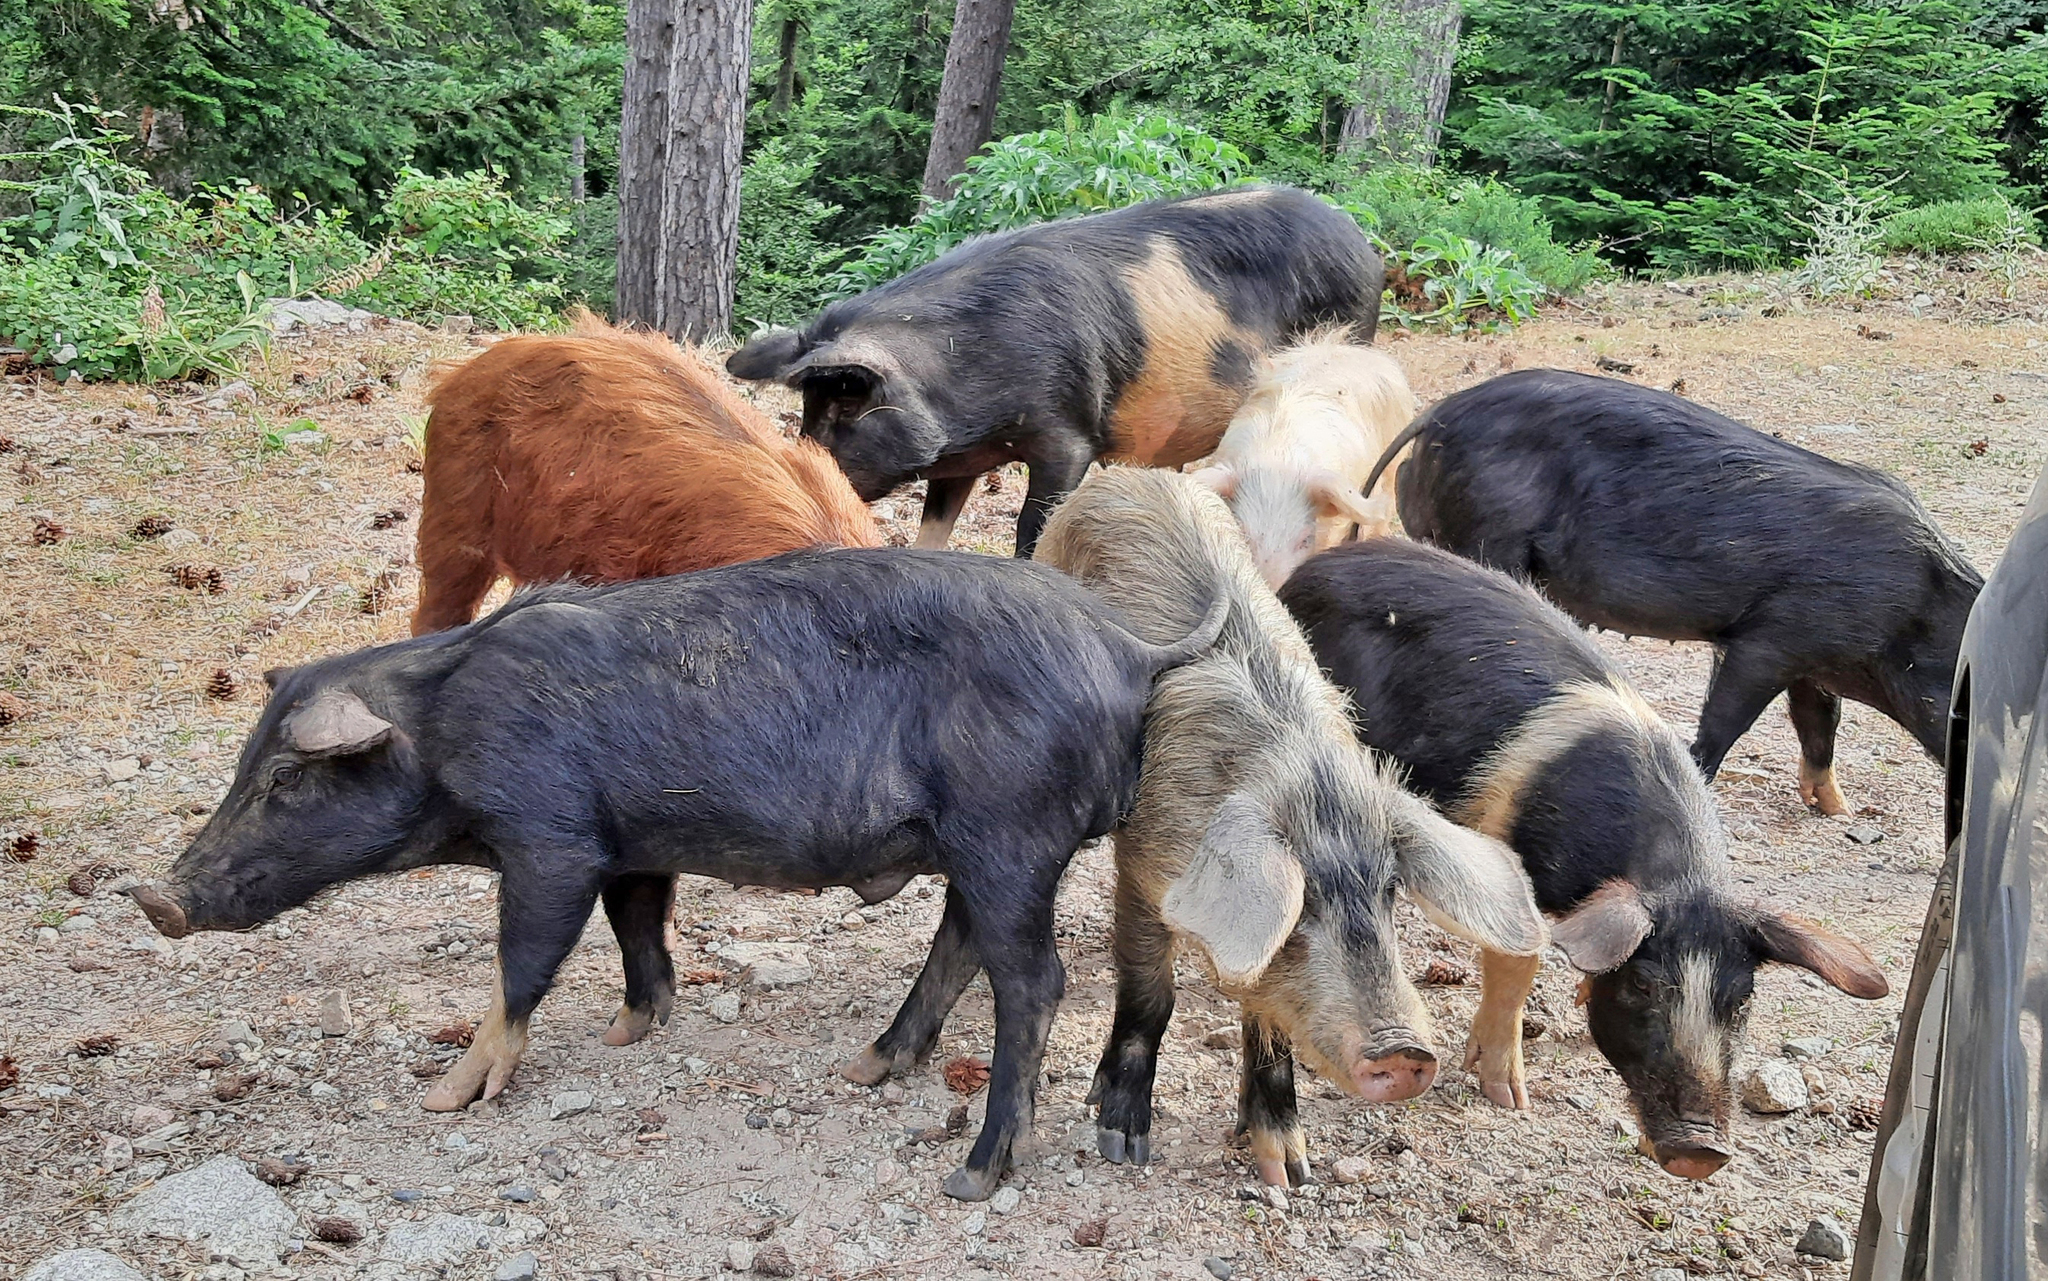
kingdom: Animalia
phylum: Chordata
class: Mammalia
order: Artiodactyla
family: Suidae
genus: Sus
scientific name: Sus scrofa
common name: Wild boar
